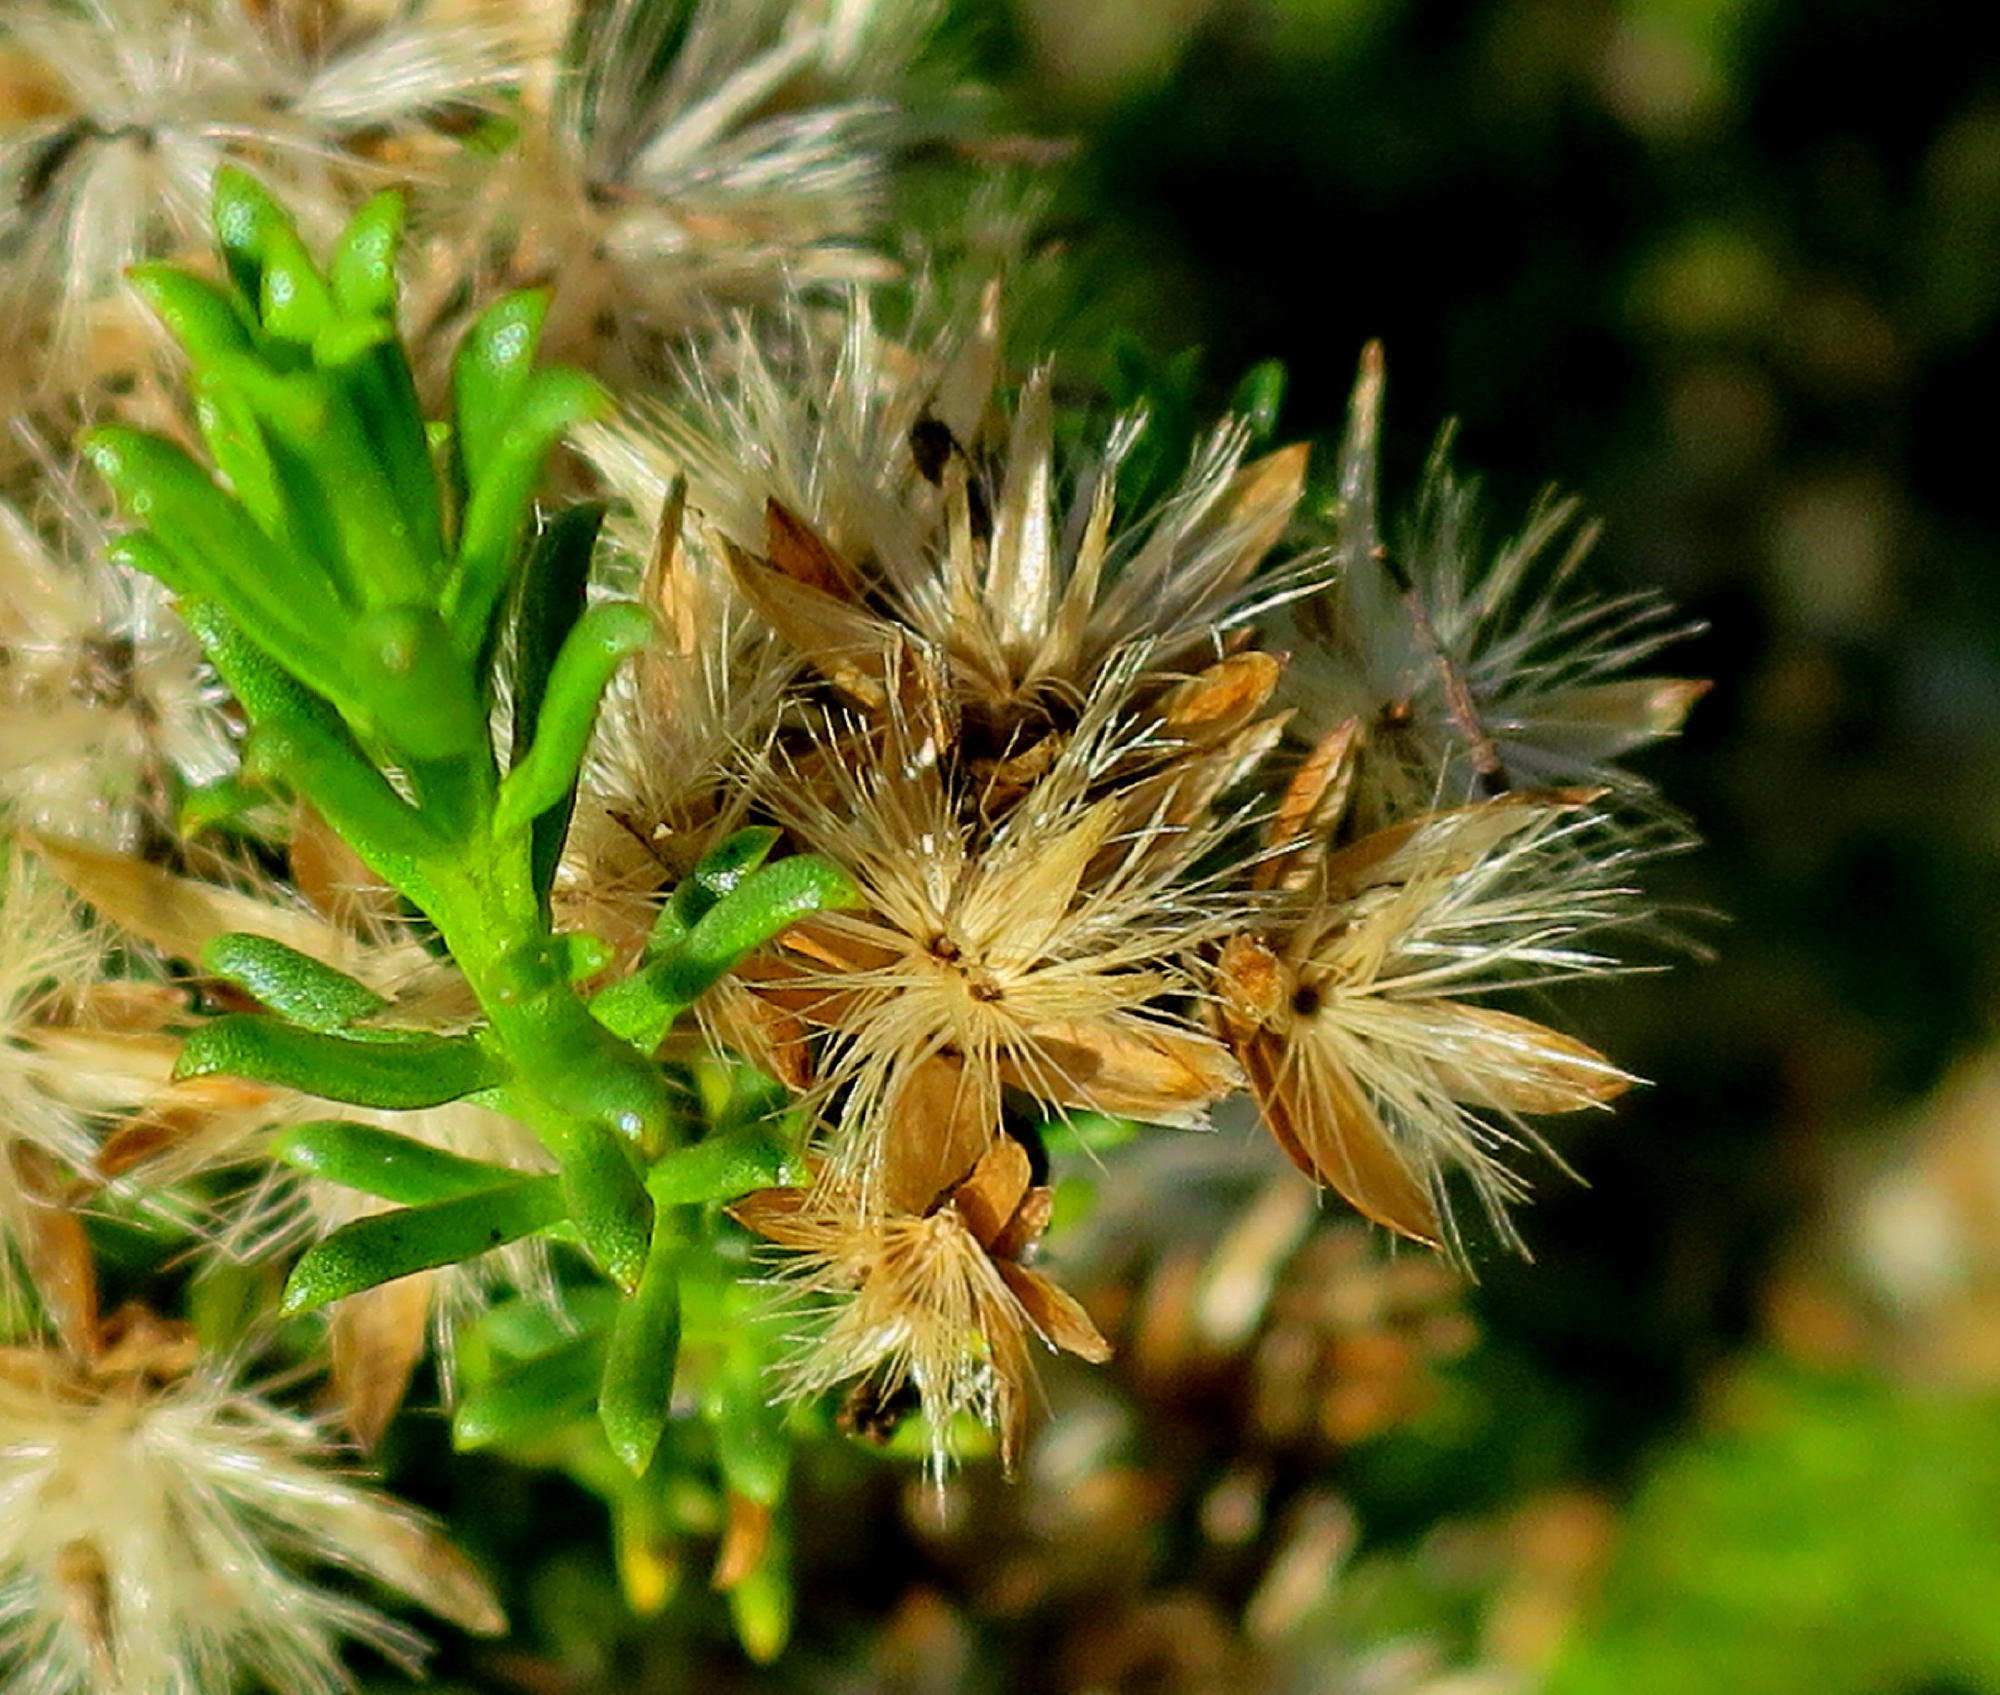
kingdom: Plantae
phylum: Tracheophyta
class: Magnoliopsida
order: Asterales
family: Asteraceae
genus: Pteronia
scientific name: Pteronia uncinata
